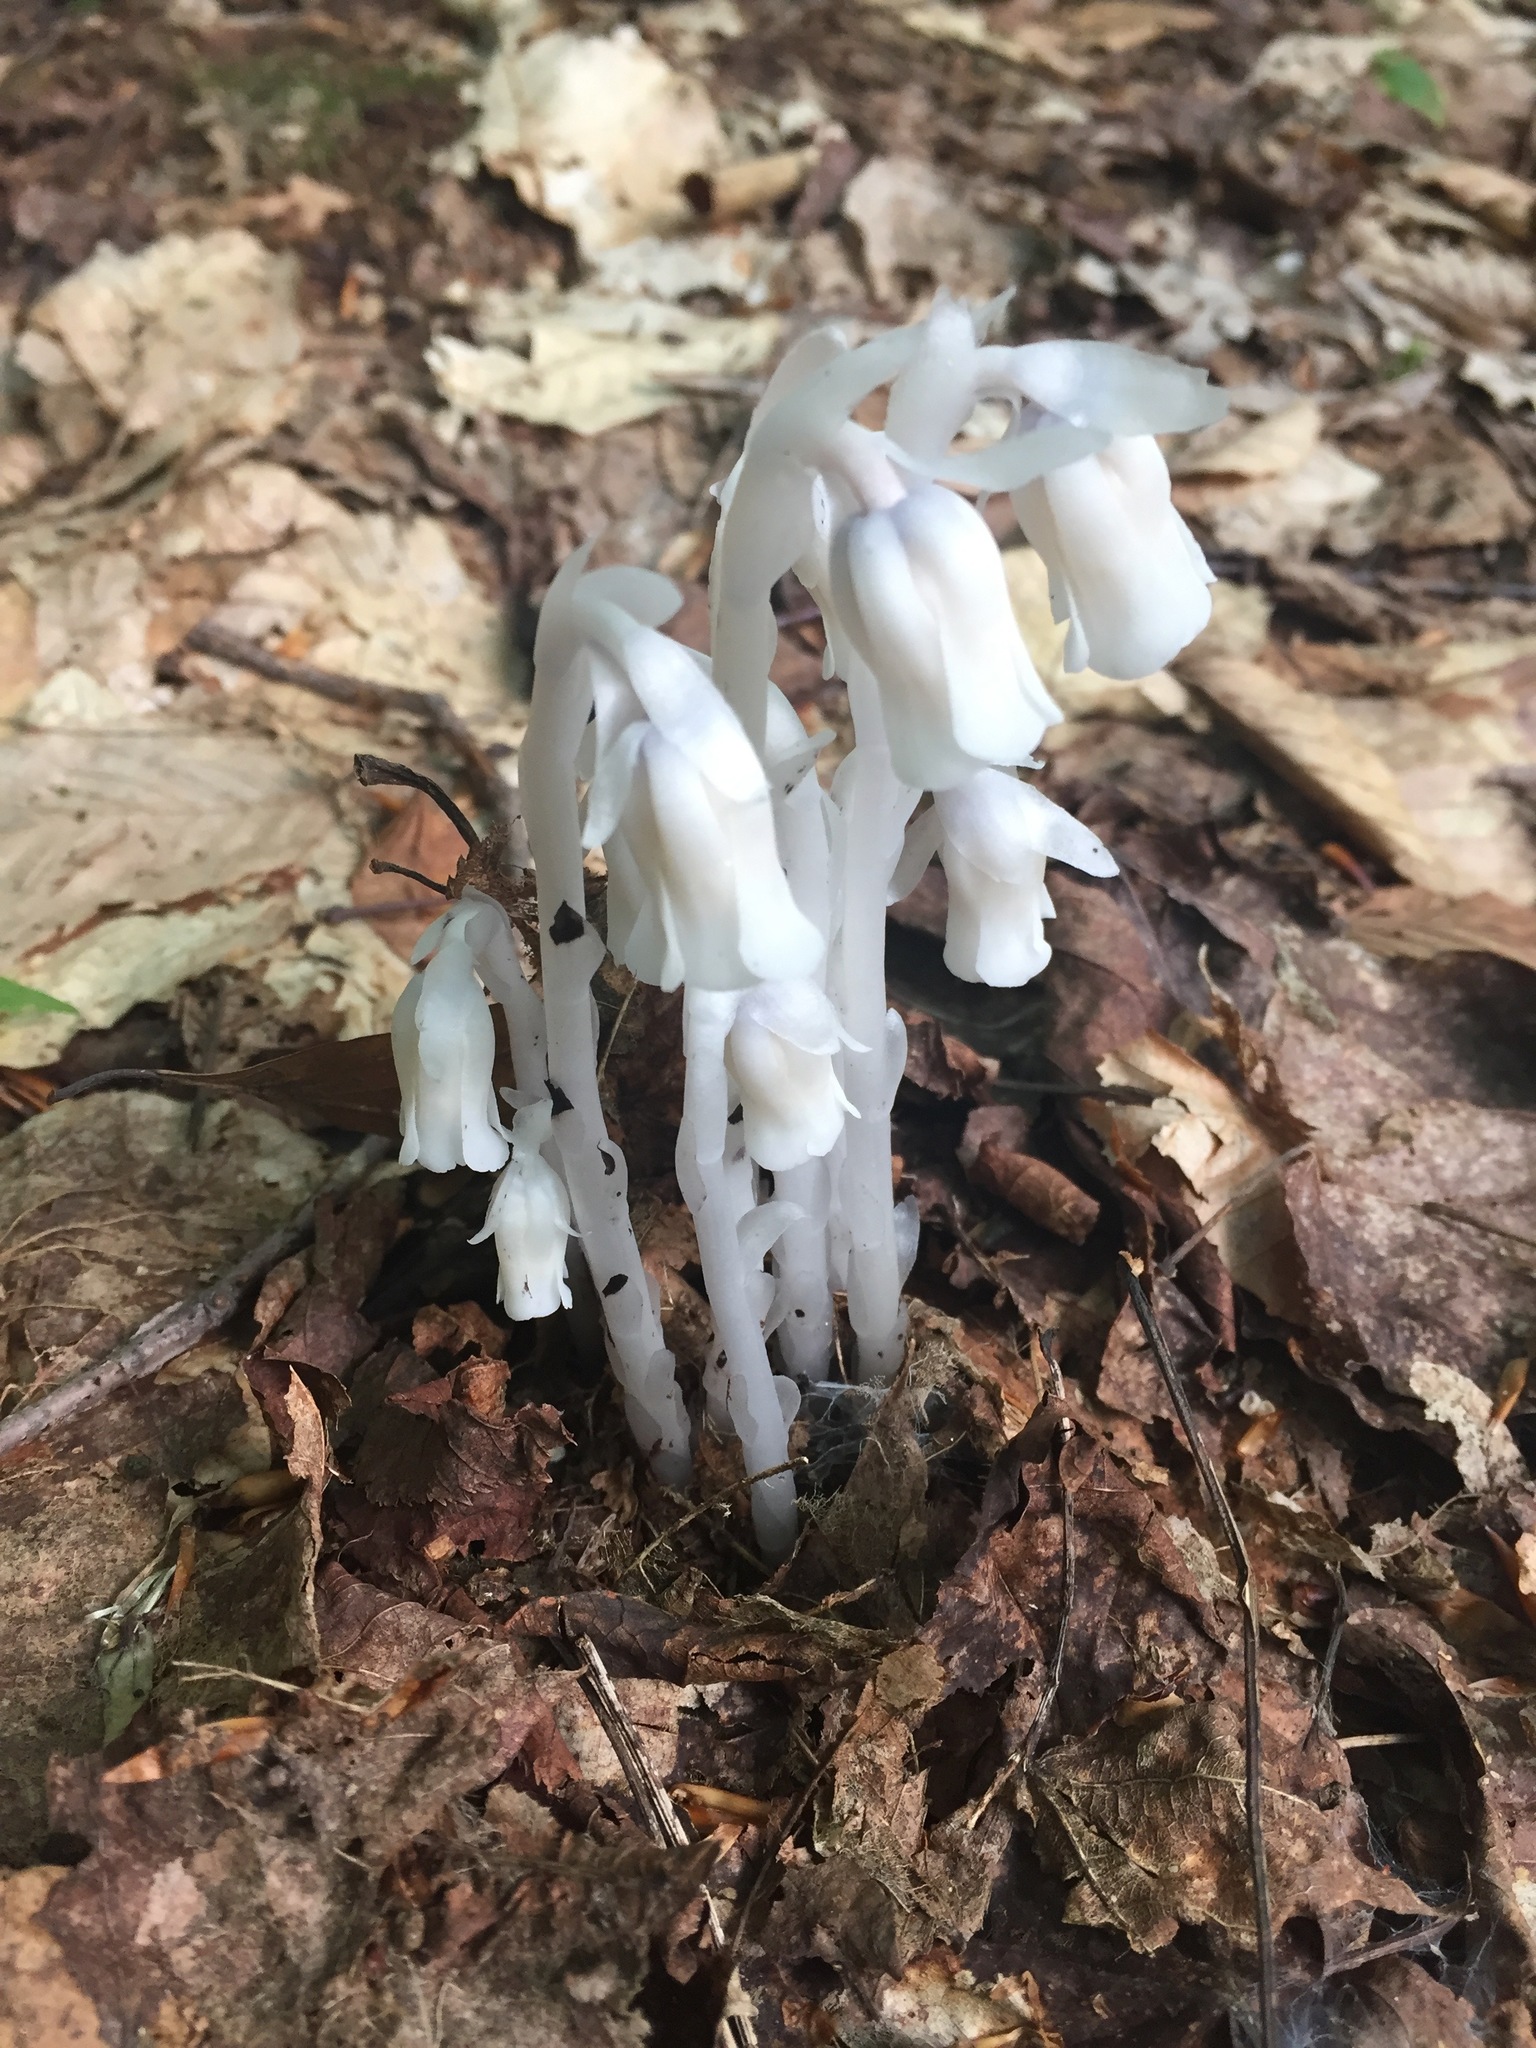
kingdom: Plantae
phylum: Tracheophyta
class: Magnoliopsida
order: Ericales
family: Ericaceae
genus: Monotropa
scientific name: Monotropa uniflora
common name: Convulsion root
